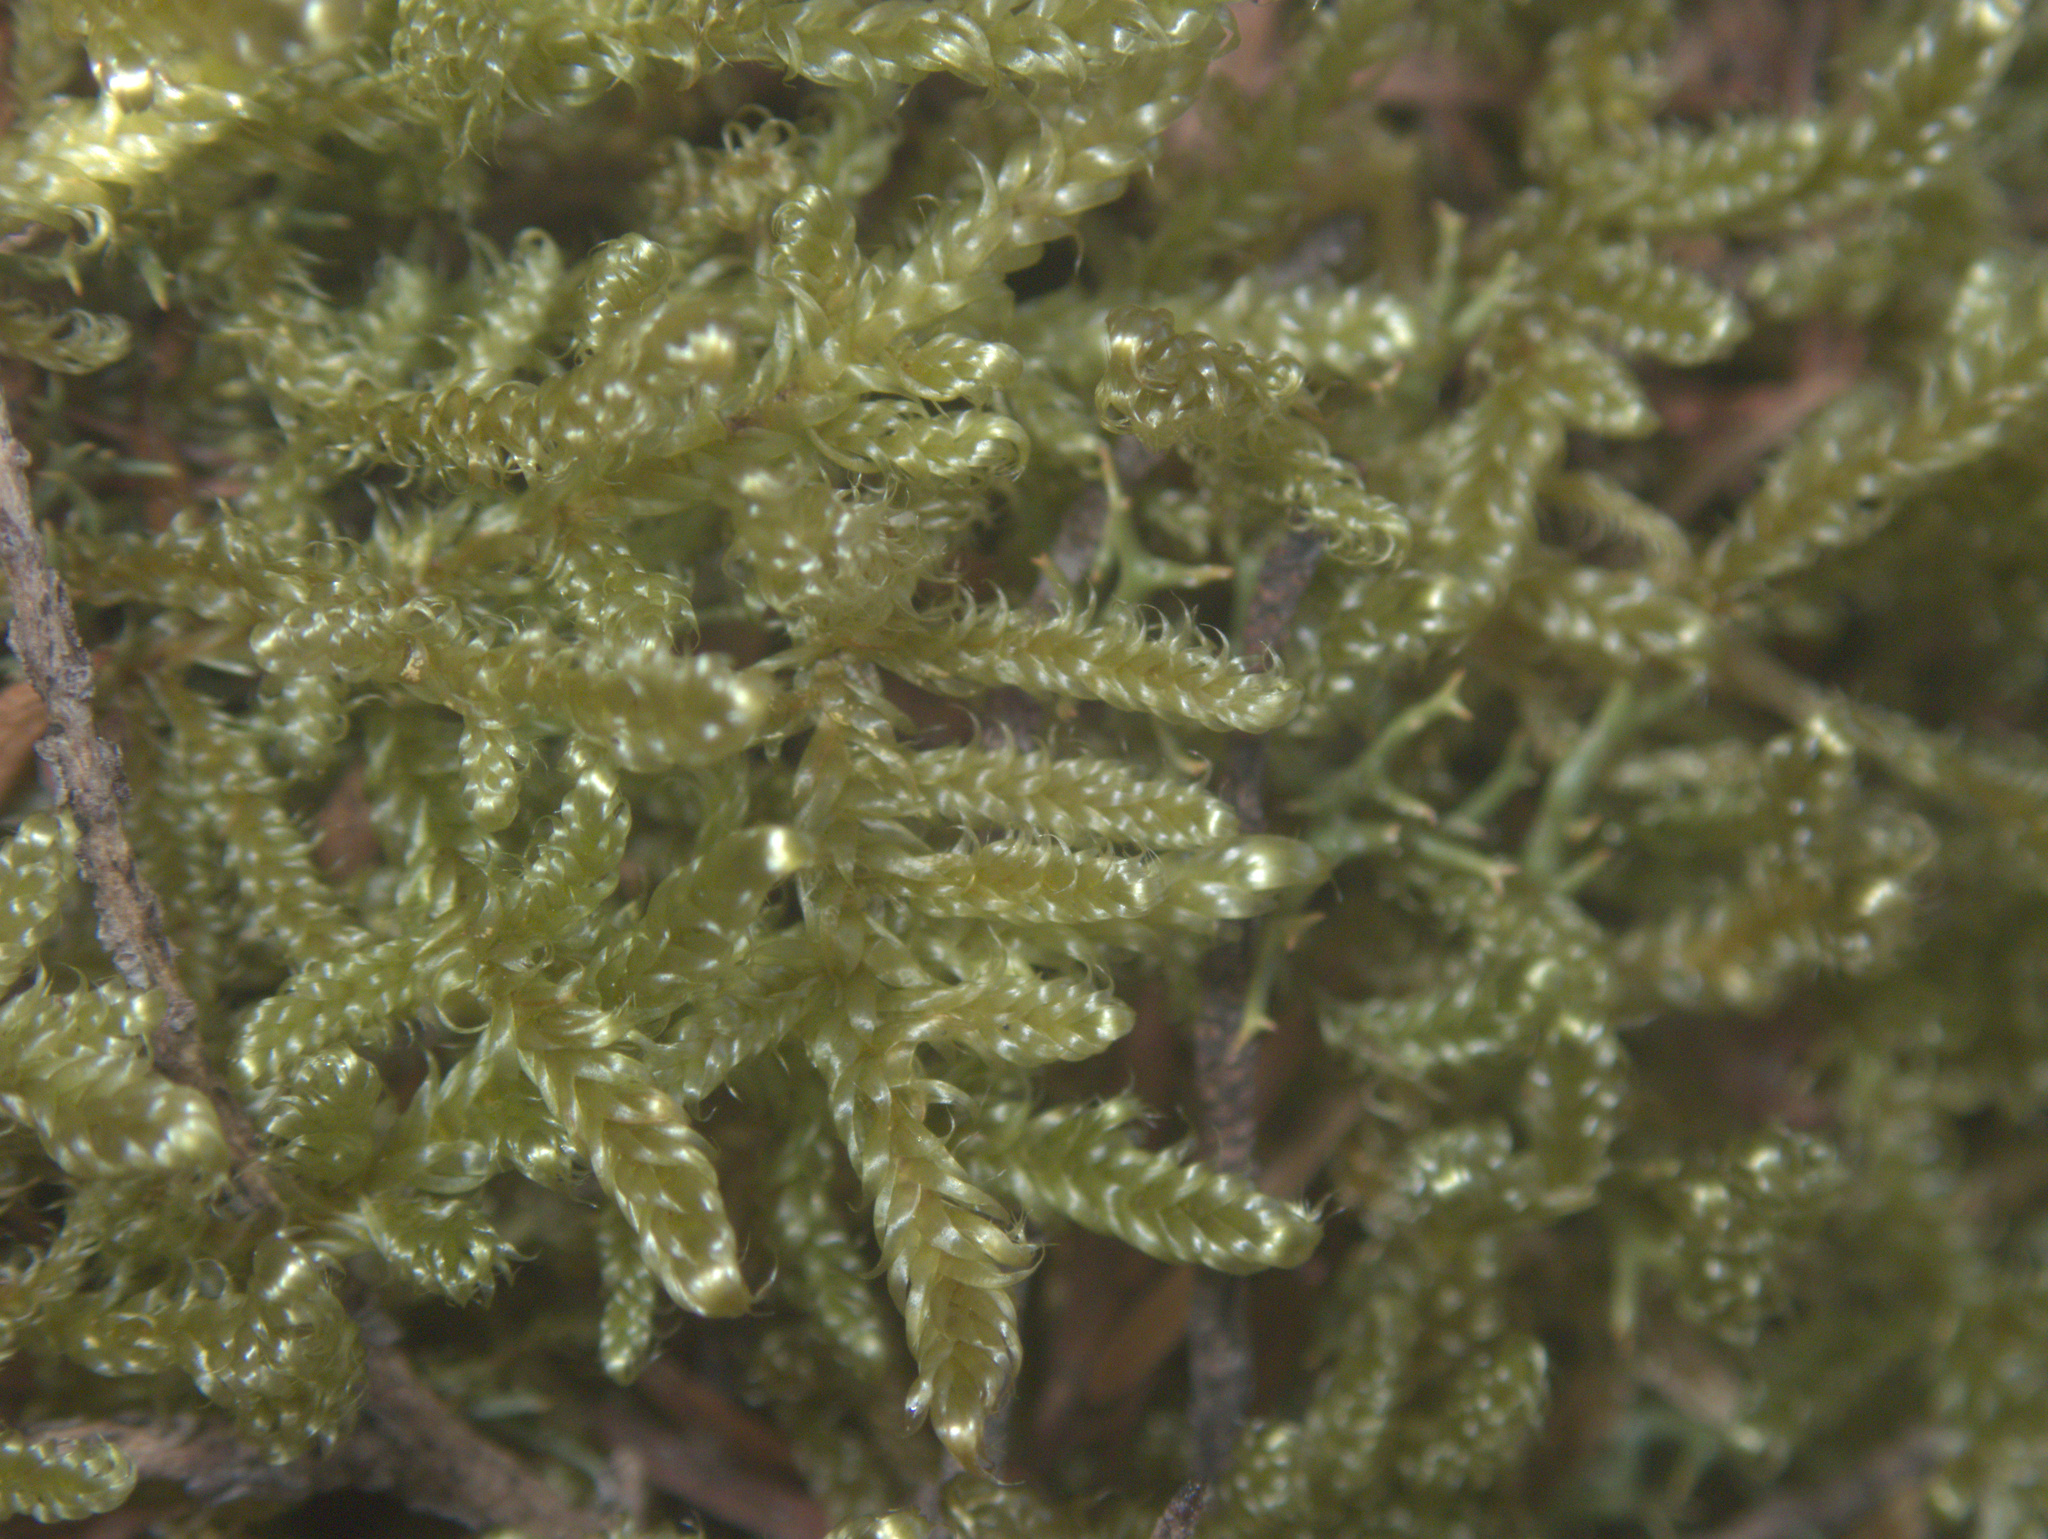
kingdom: Plantae
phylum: Bryophyta
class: Bryopsida
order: Hypnales
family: Hypnaceae
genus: Hypnum
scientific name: Hypnum cupressiforme
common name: Cypress-leaved plait-moss
